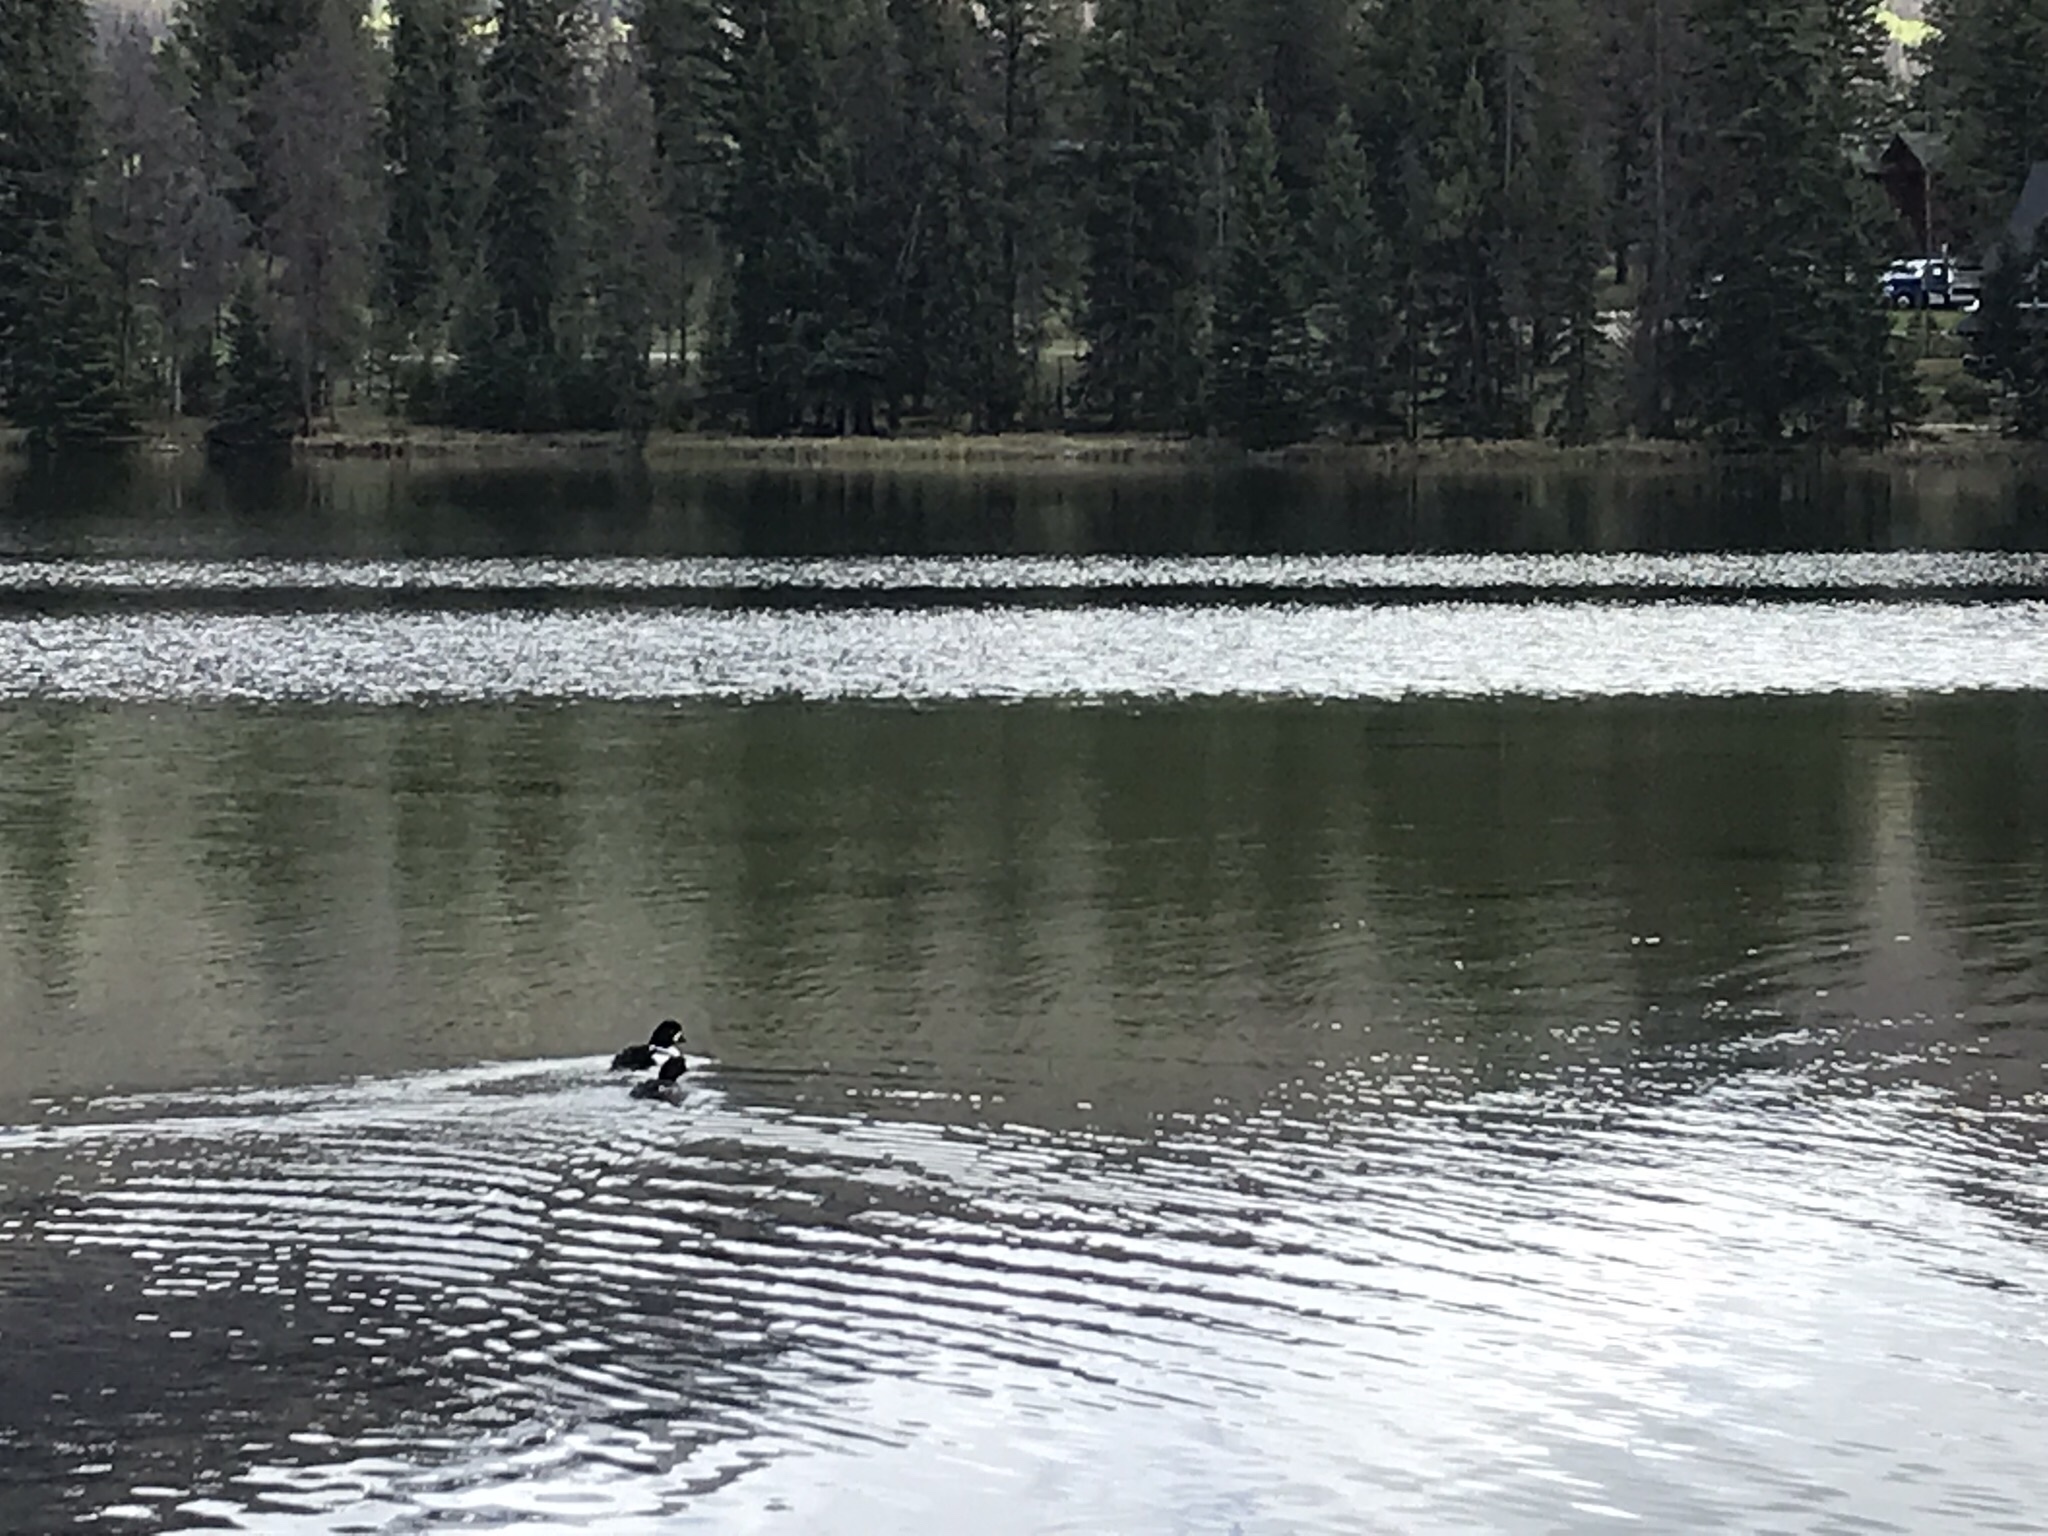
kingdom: Animalia
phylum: Chordata
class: Aves
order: Anseriformes
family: Anatidae
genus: Bucephala
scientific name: Bucephala islandica
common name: Barrow's goldeneye
